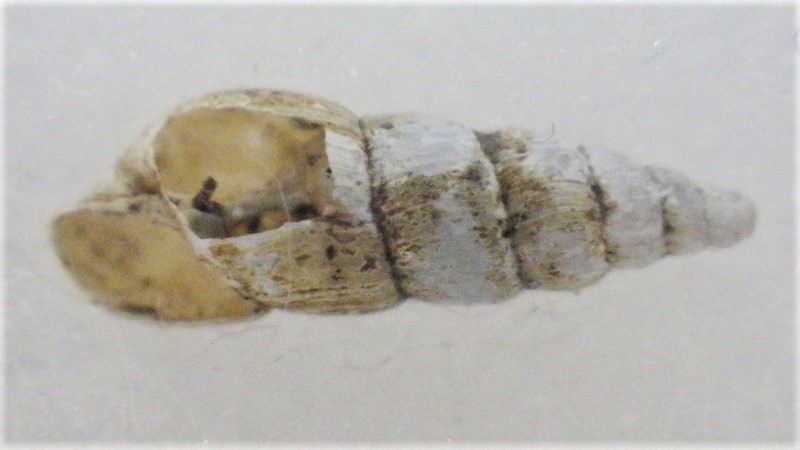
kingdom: Animalia
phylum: Mollusca
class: Gastropoda
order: Stylommatophora
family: Achatinidae
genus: Paropeas
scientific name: Paropeas achatinaceum
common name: Snail
